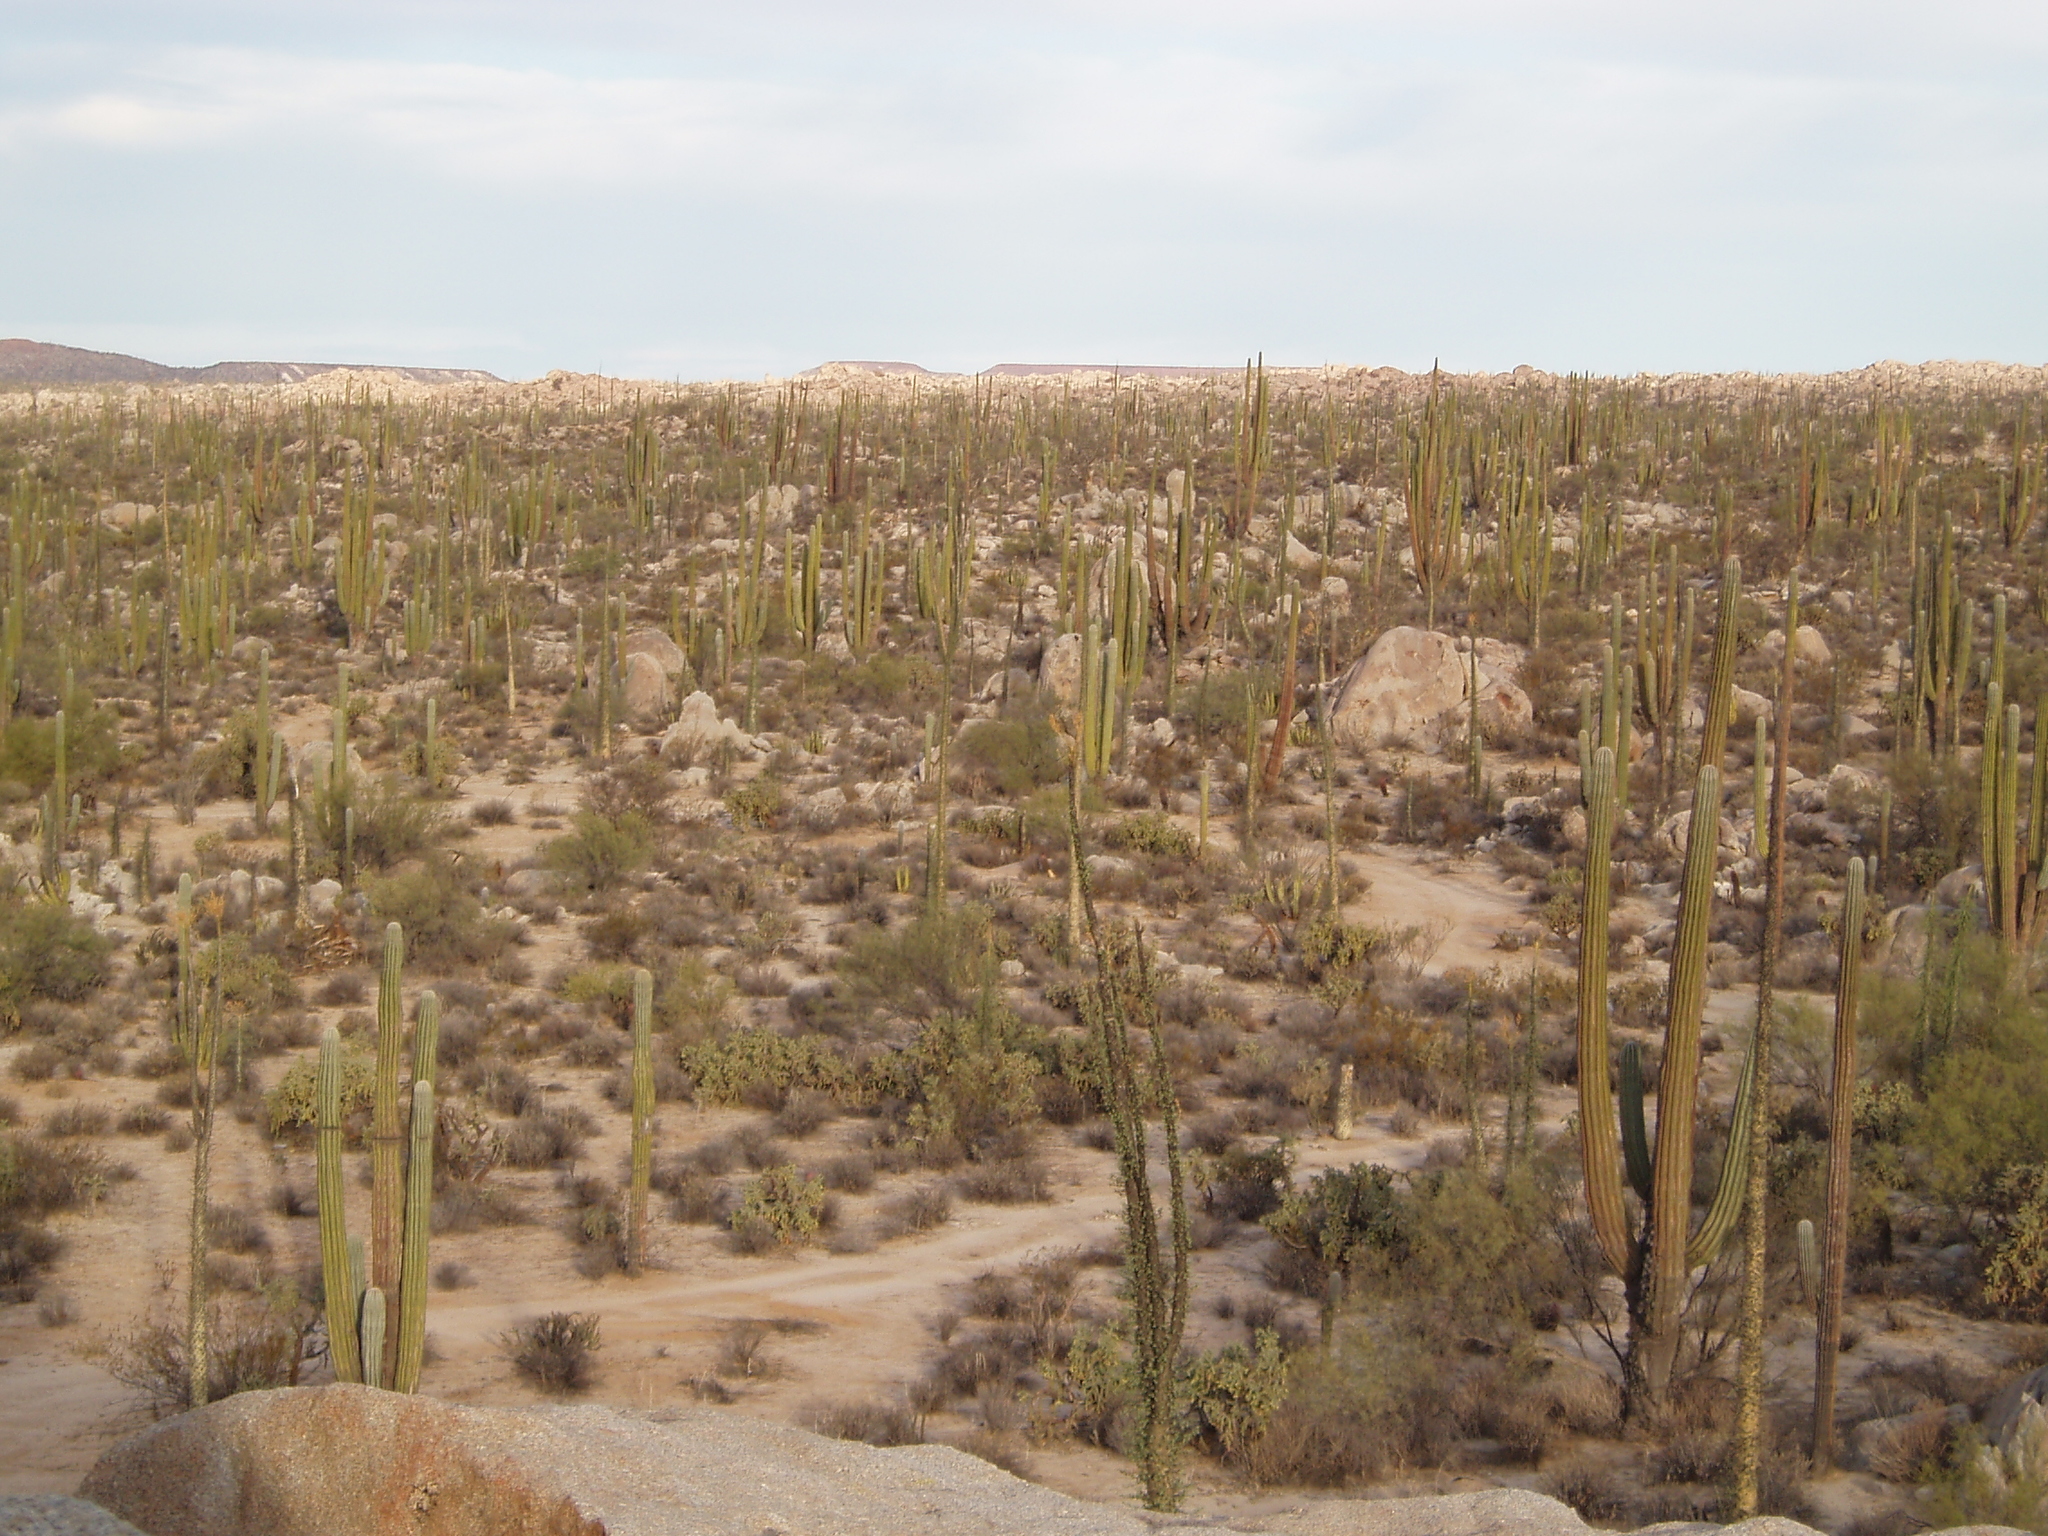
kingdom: Plantae
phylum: Tracheophyta
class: Magnoliopsida
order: Ericales
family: Fouquieriaceae
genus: Fouquieria
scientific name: Fouquieria columnaris
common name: Boojumtree
